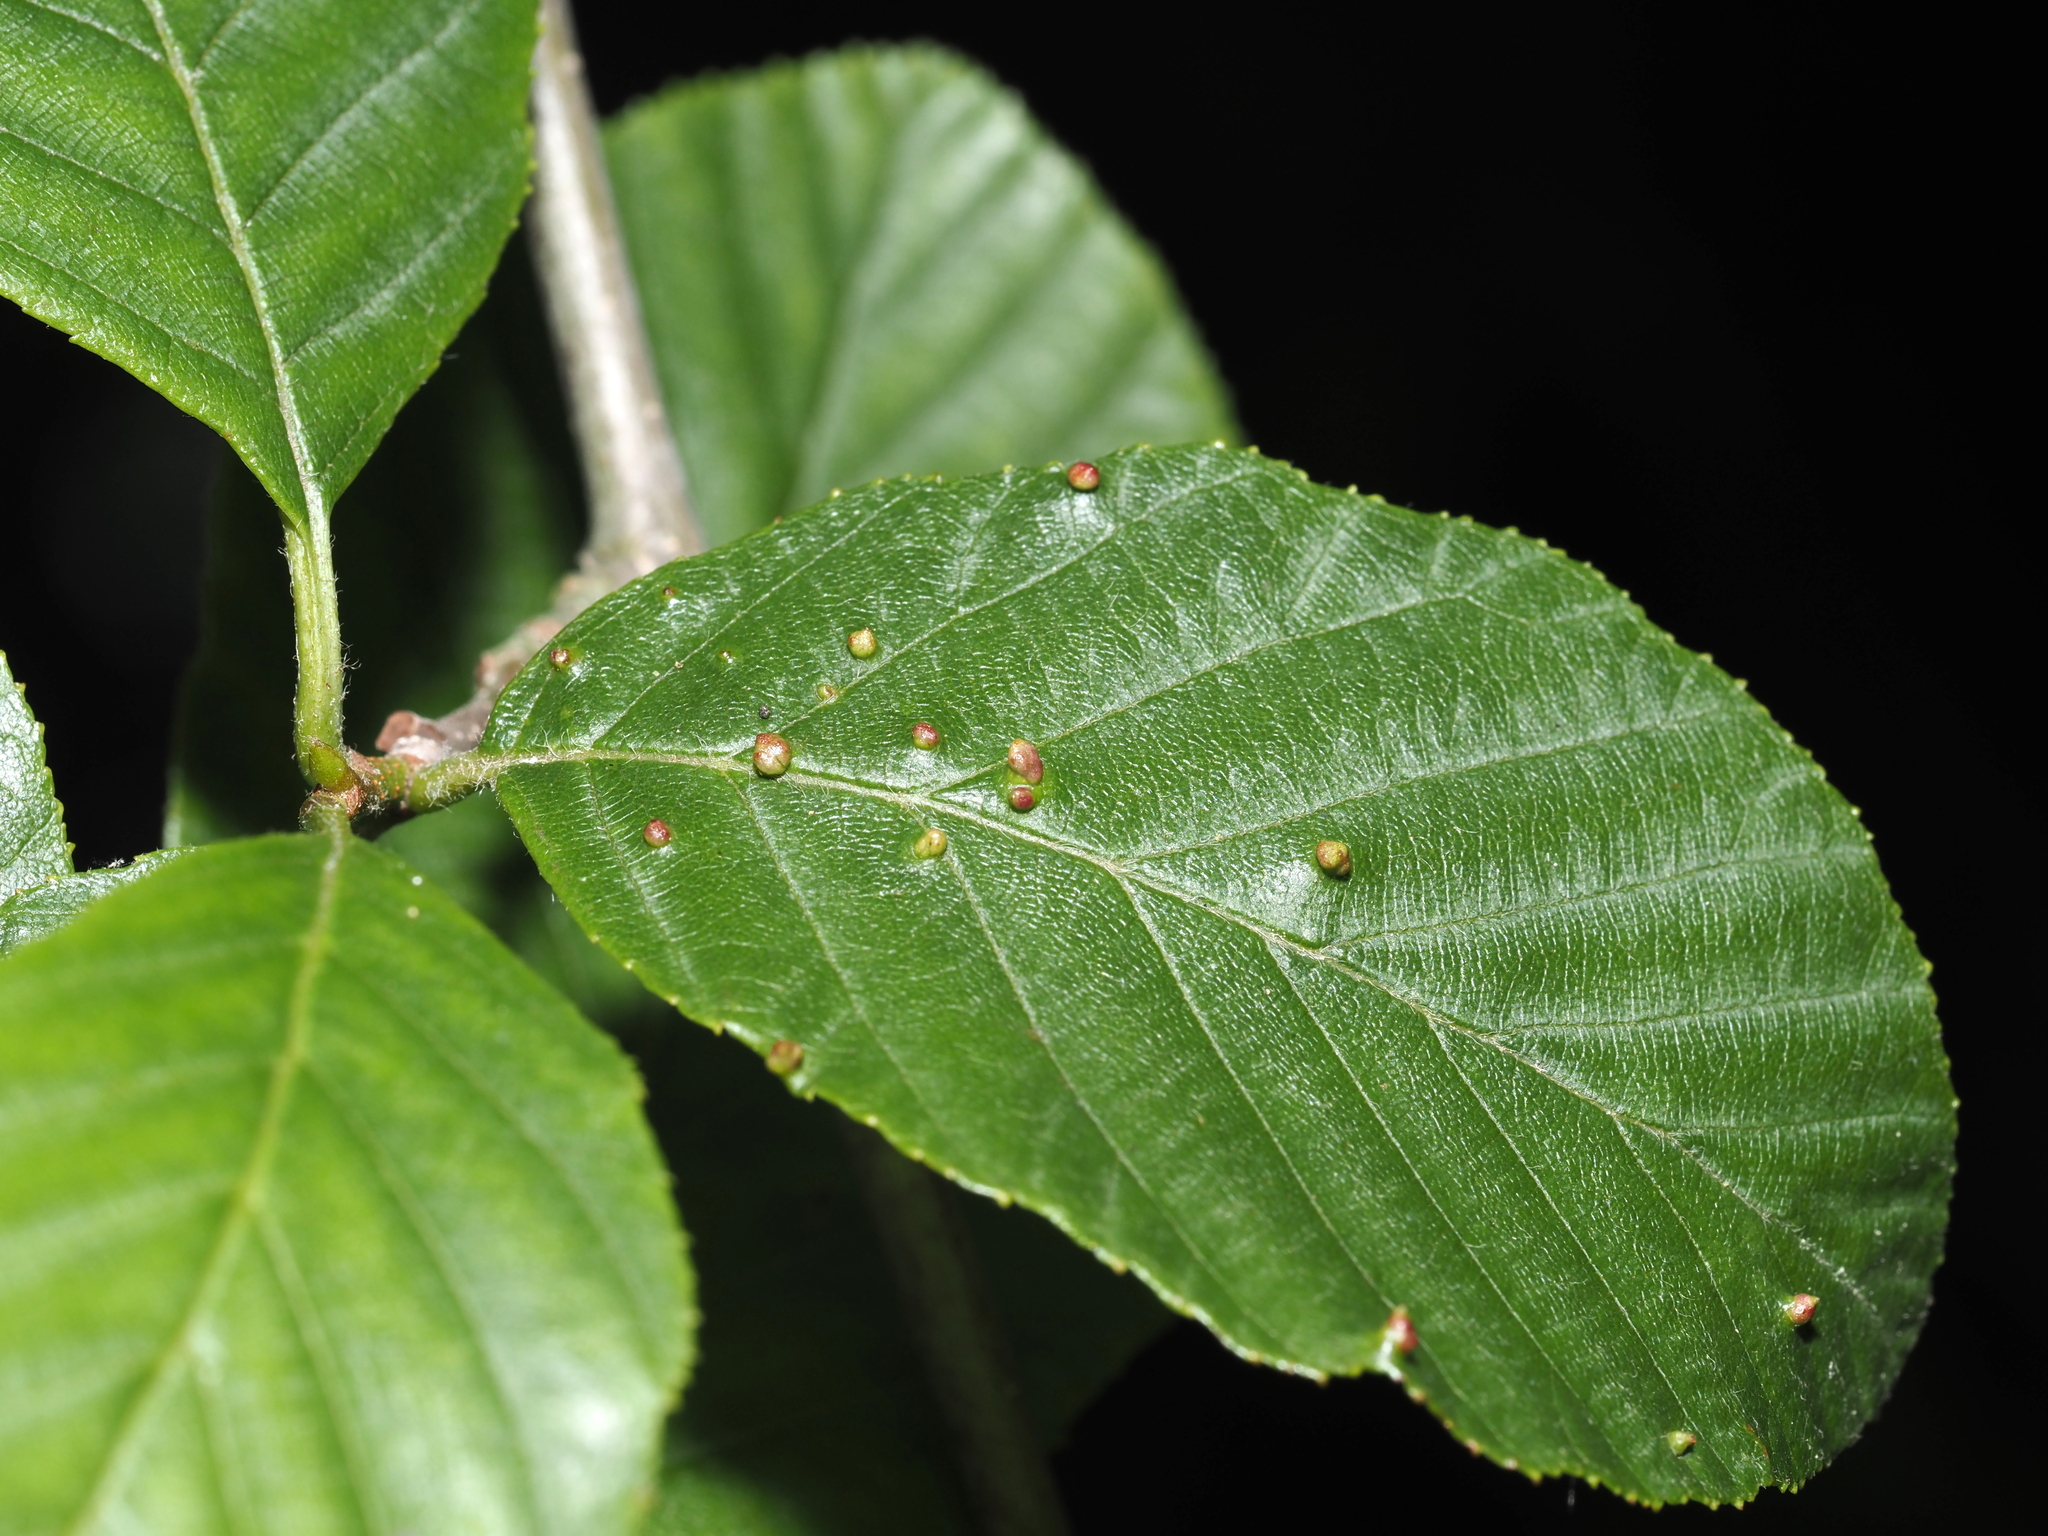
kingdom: Animalia
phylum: Arthropoda
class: Arachnida
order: Trombidiformes
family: Eriophyidae
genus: Eriophyes
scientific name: Eriophyes laevis
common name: Alder leaf gall mite
